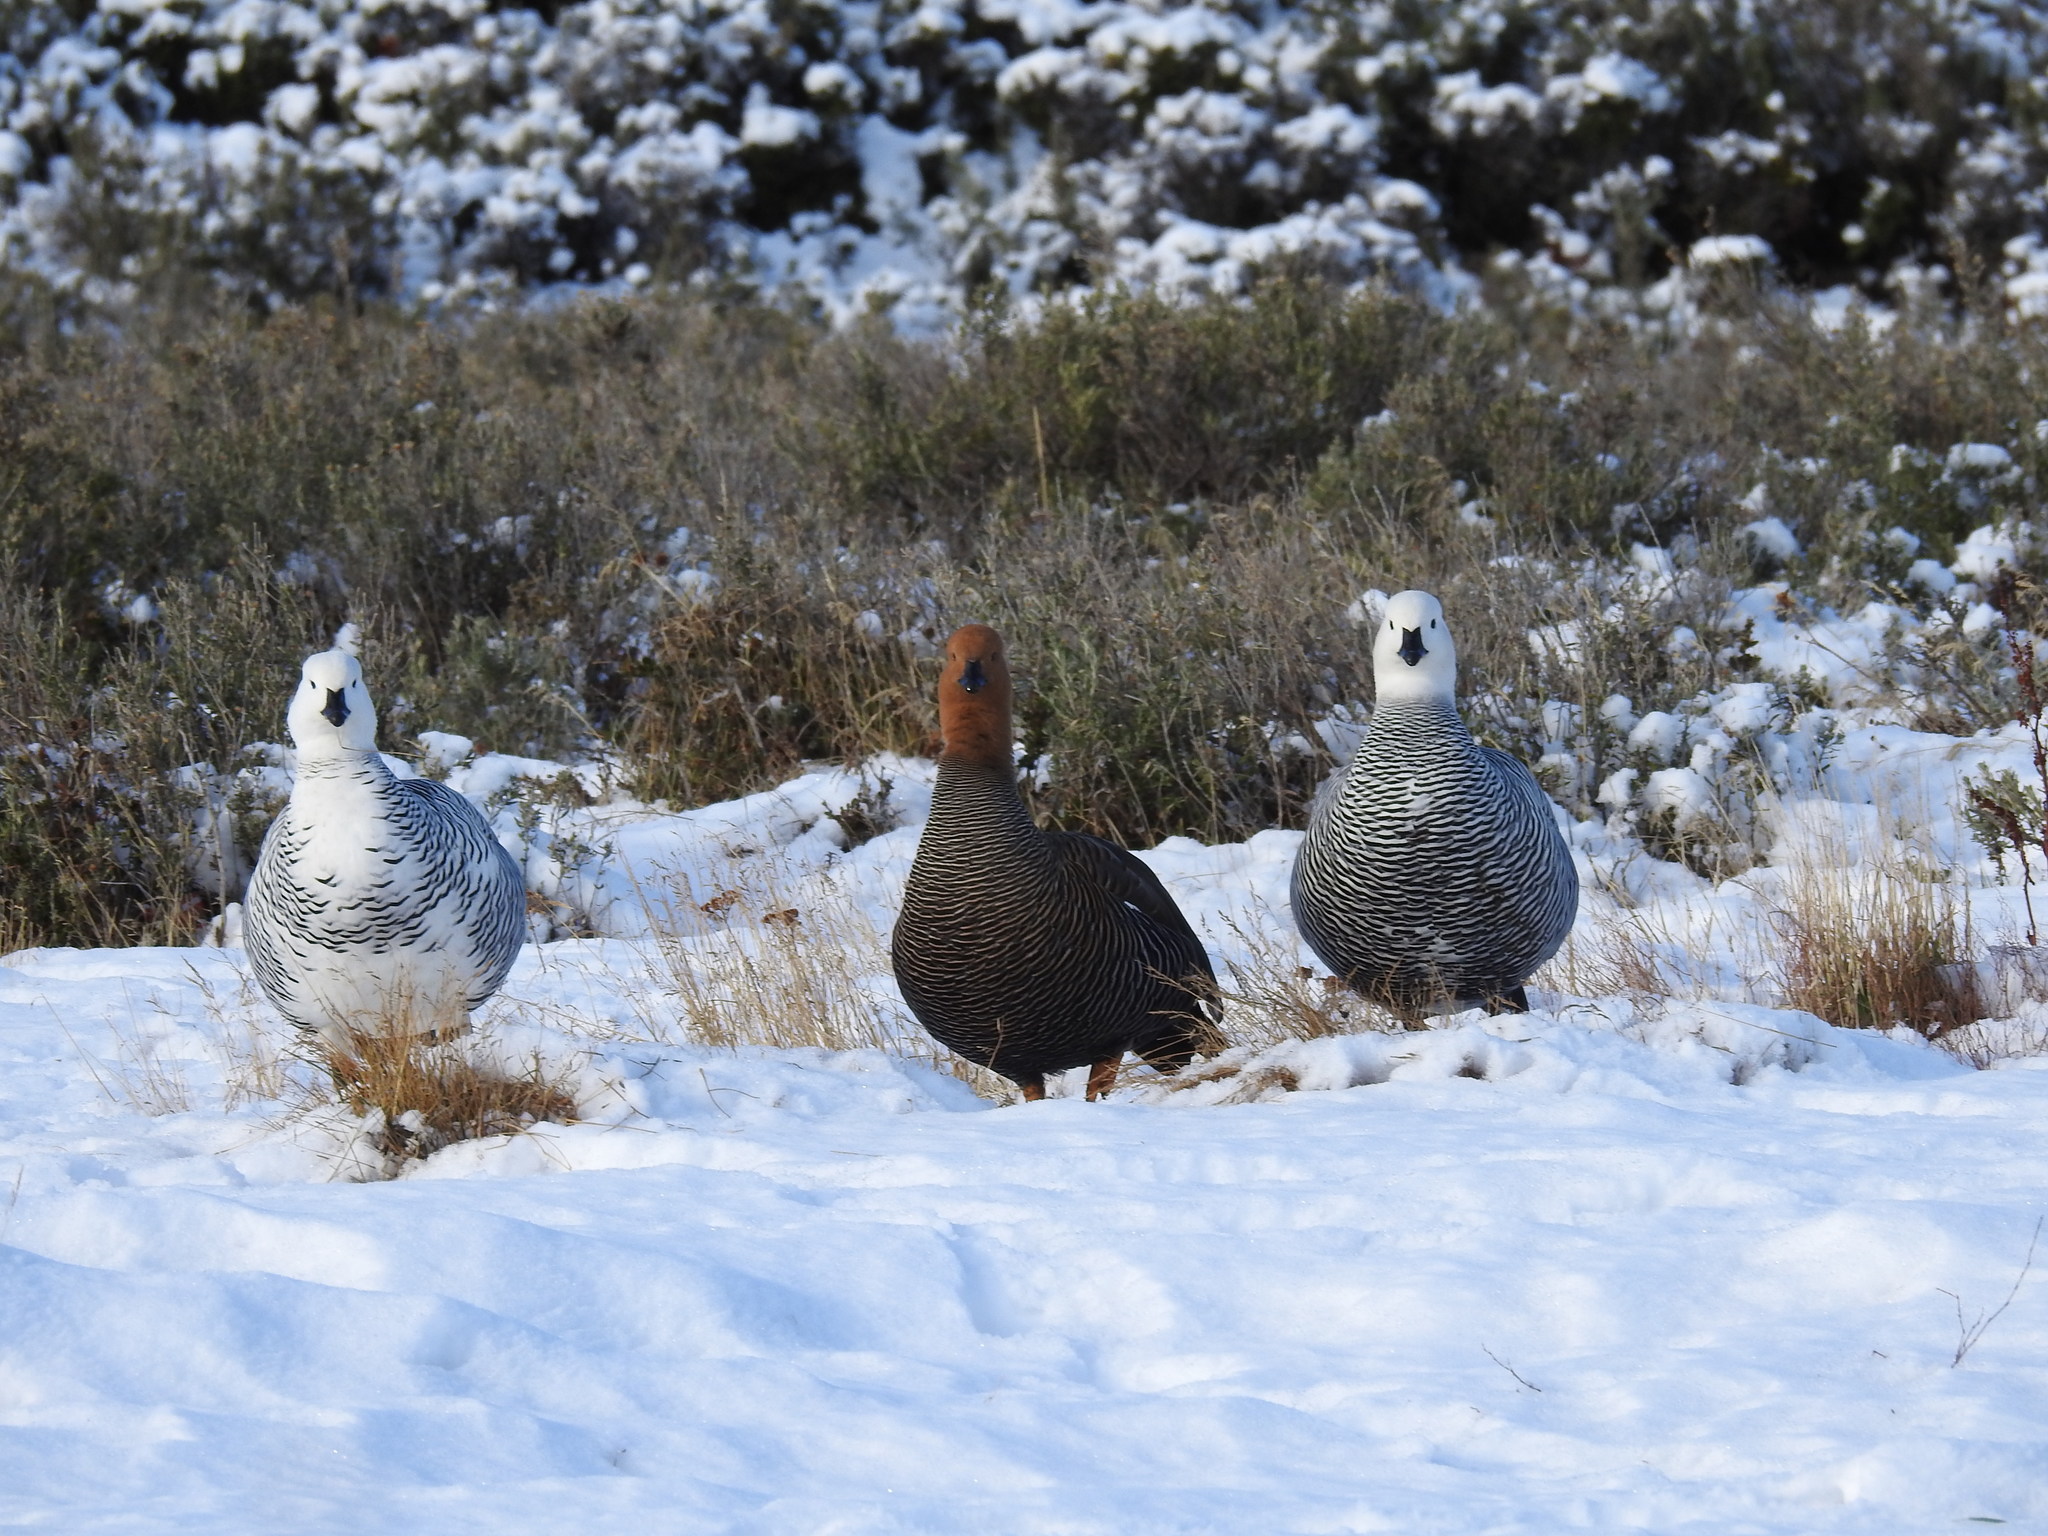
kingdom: Animalia
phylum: Chordata
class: Aves
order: Anseriformes
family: Anatidae
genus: Chloephaga
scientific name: Chloephaga picta
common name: Upland goose
